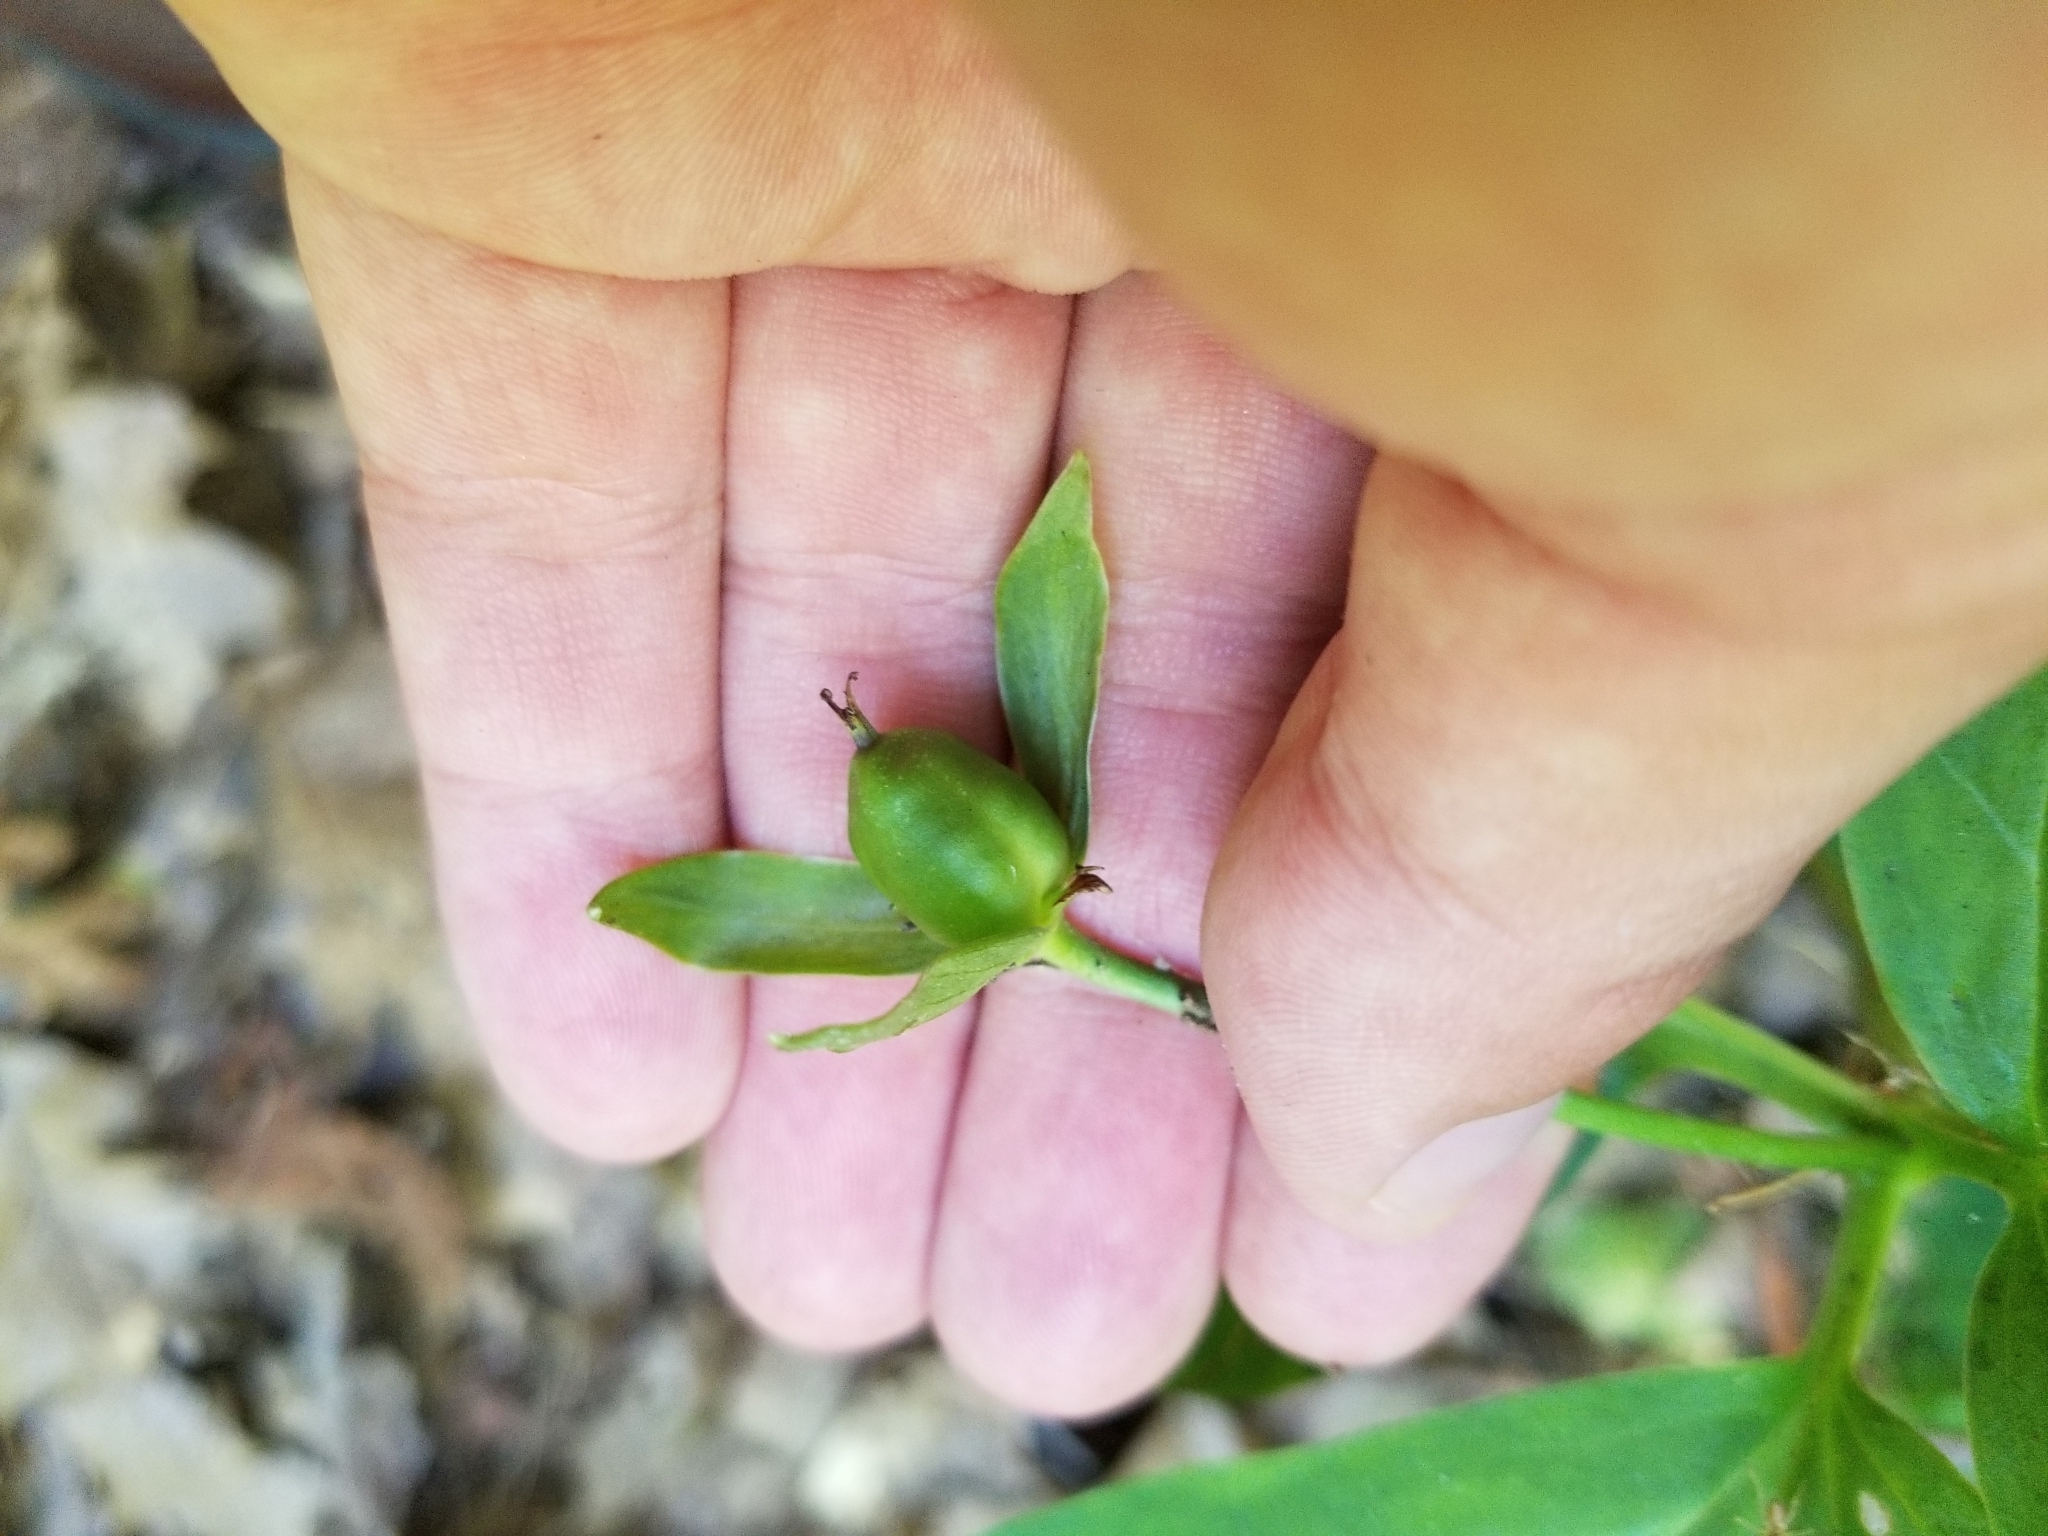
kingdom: Plantae
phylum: Tracheophyta
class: Liliopsida
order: Liliales
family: Melanthiaceae
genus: Trillium
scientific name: Trillium undulatum
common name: Paint trillium
